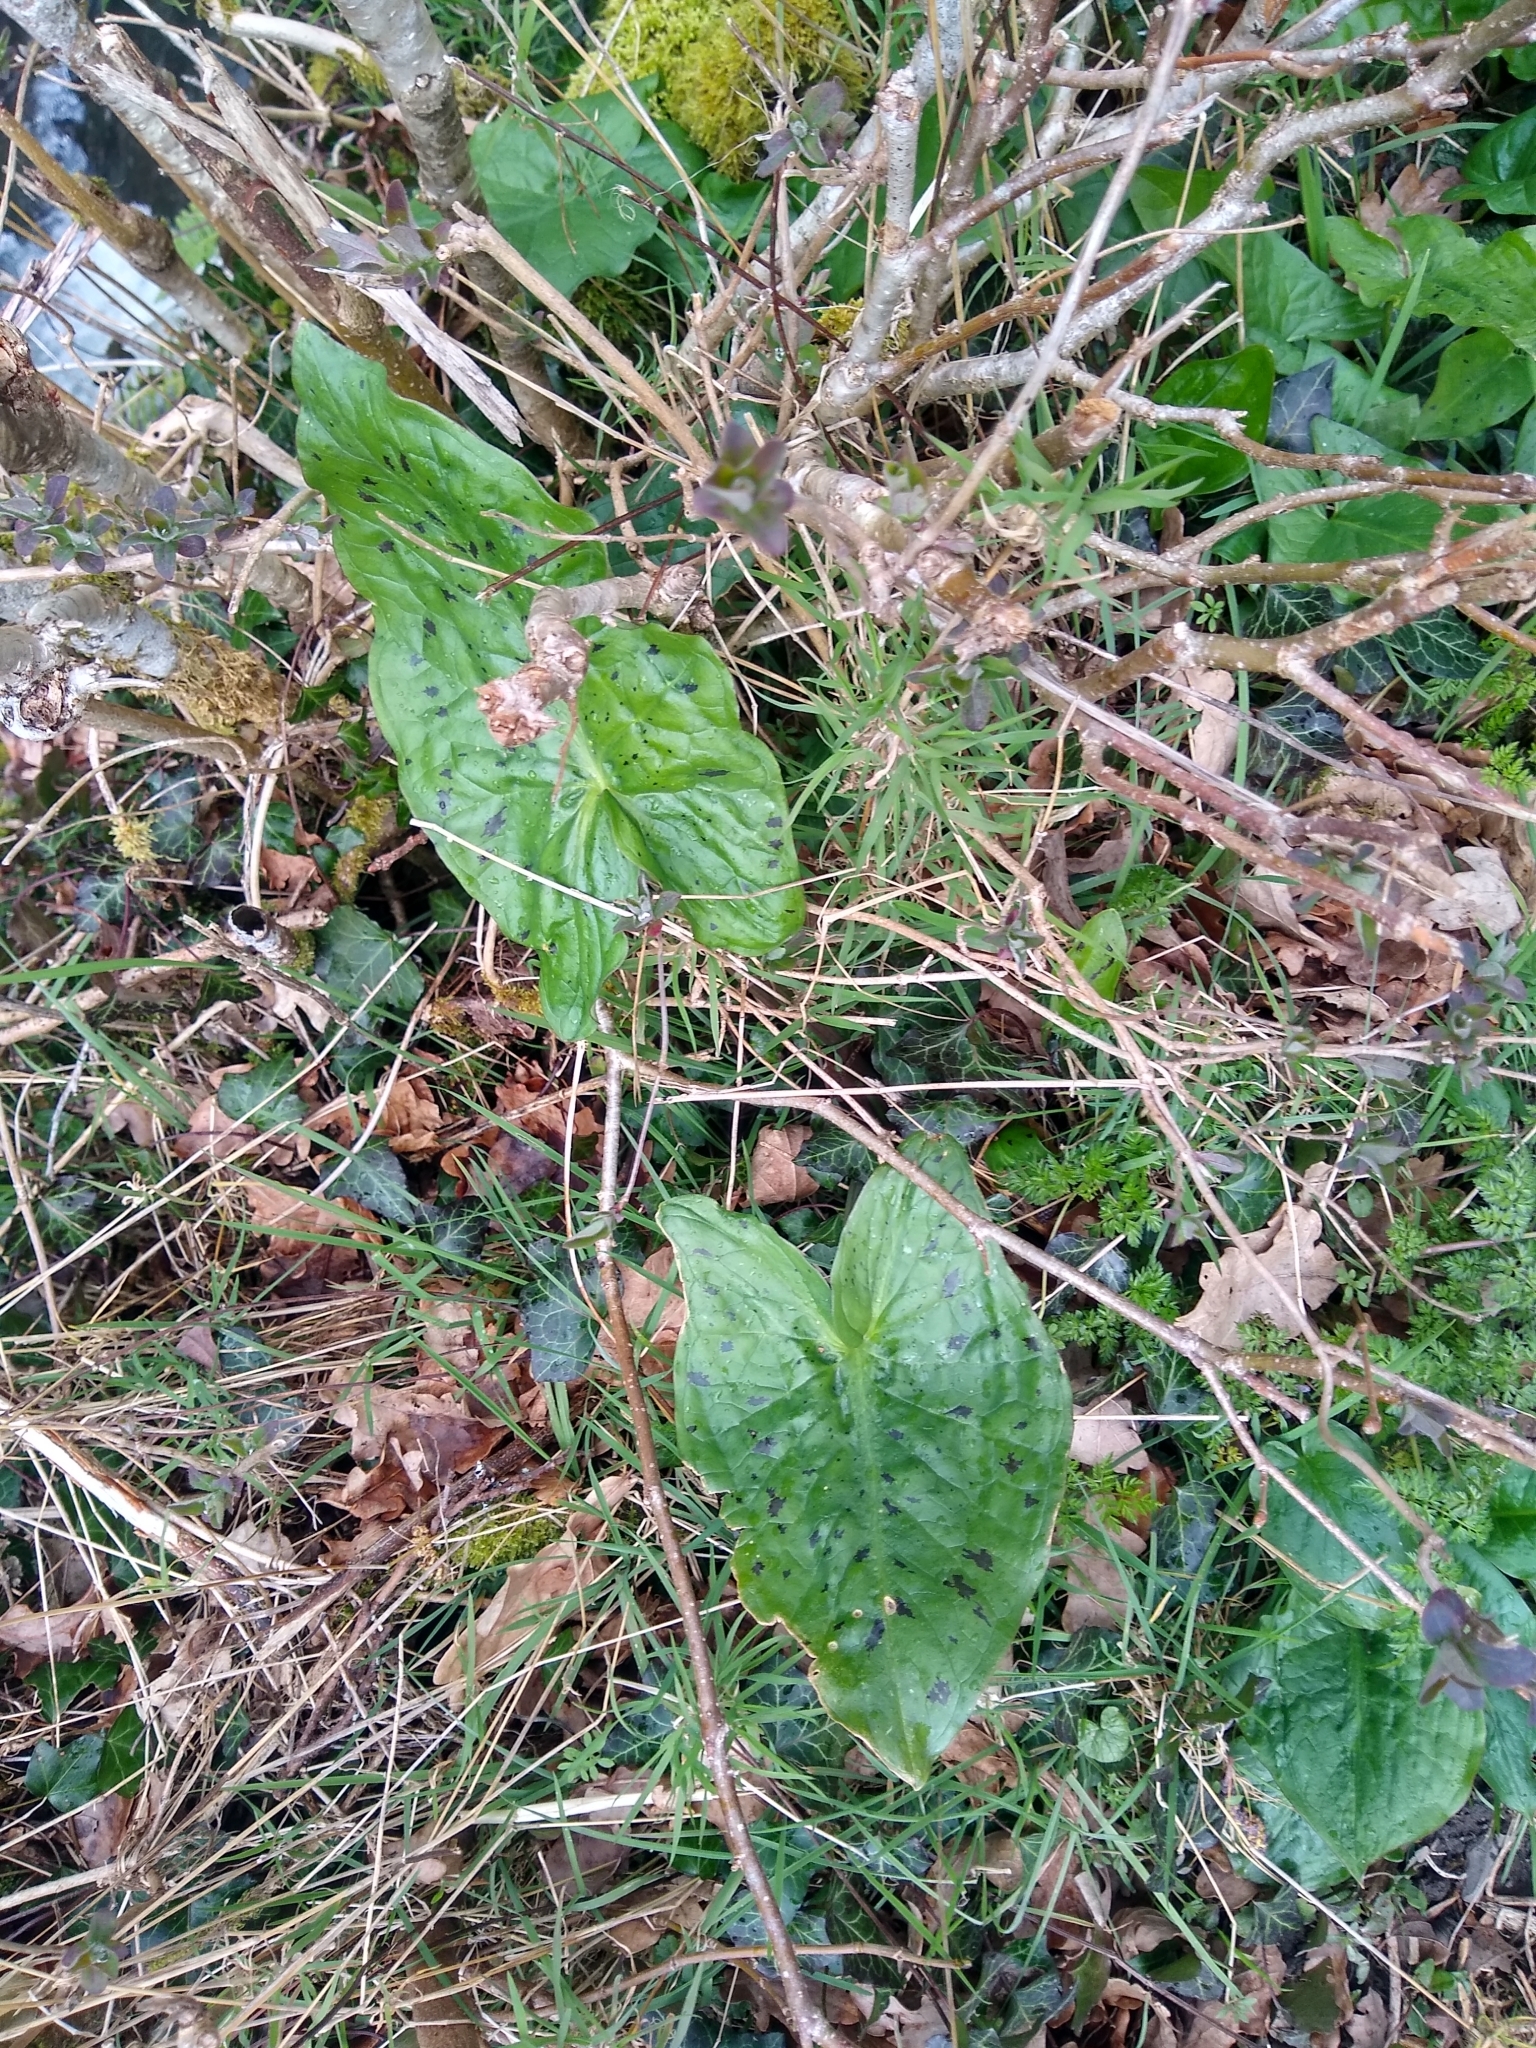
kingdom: Plantae
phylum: Tracheophyta
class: Liliopsida
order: Alismatales
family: Araceae
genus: Arum
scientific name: Arum maculatum
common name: Lords-and-ladies
